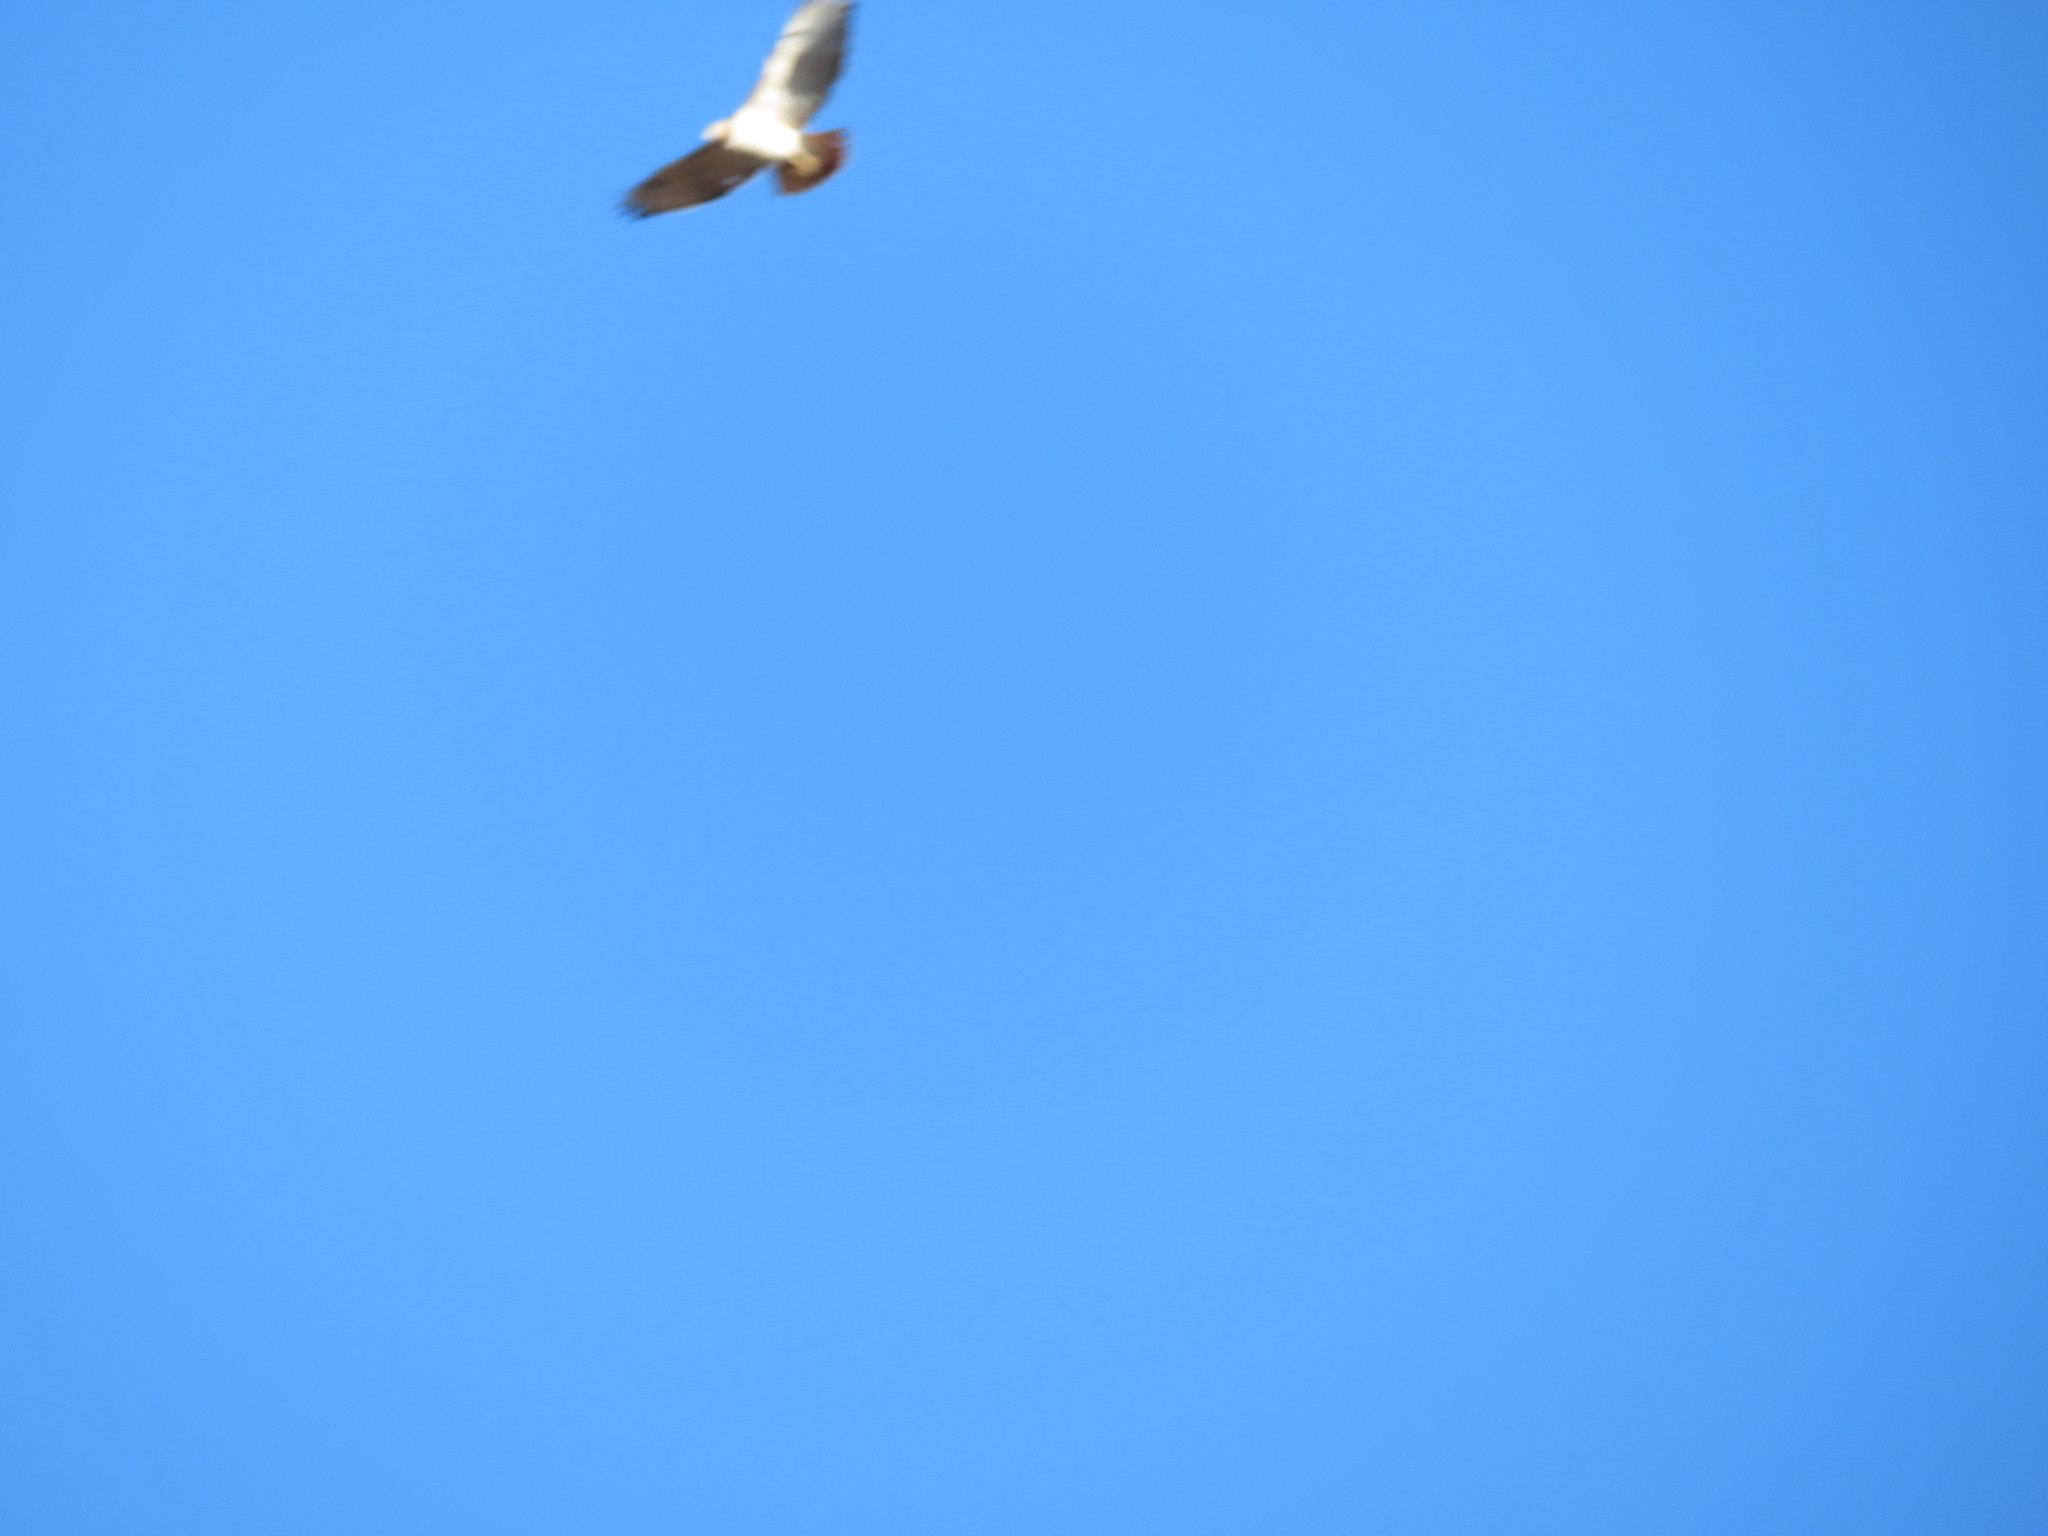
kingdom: Animalia
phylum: Chordata
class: Aves
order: Accipitriformes
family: Accipitridae
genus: Buteo
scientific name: Buteo jamaicensis
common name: Red-tailed hawk
